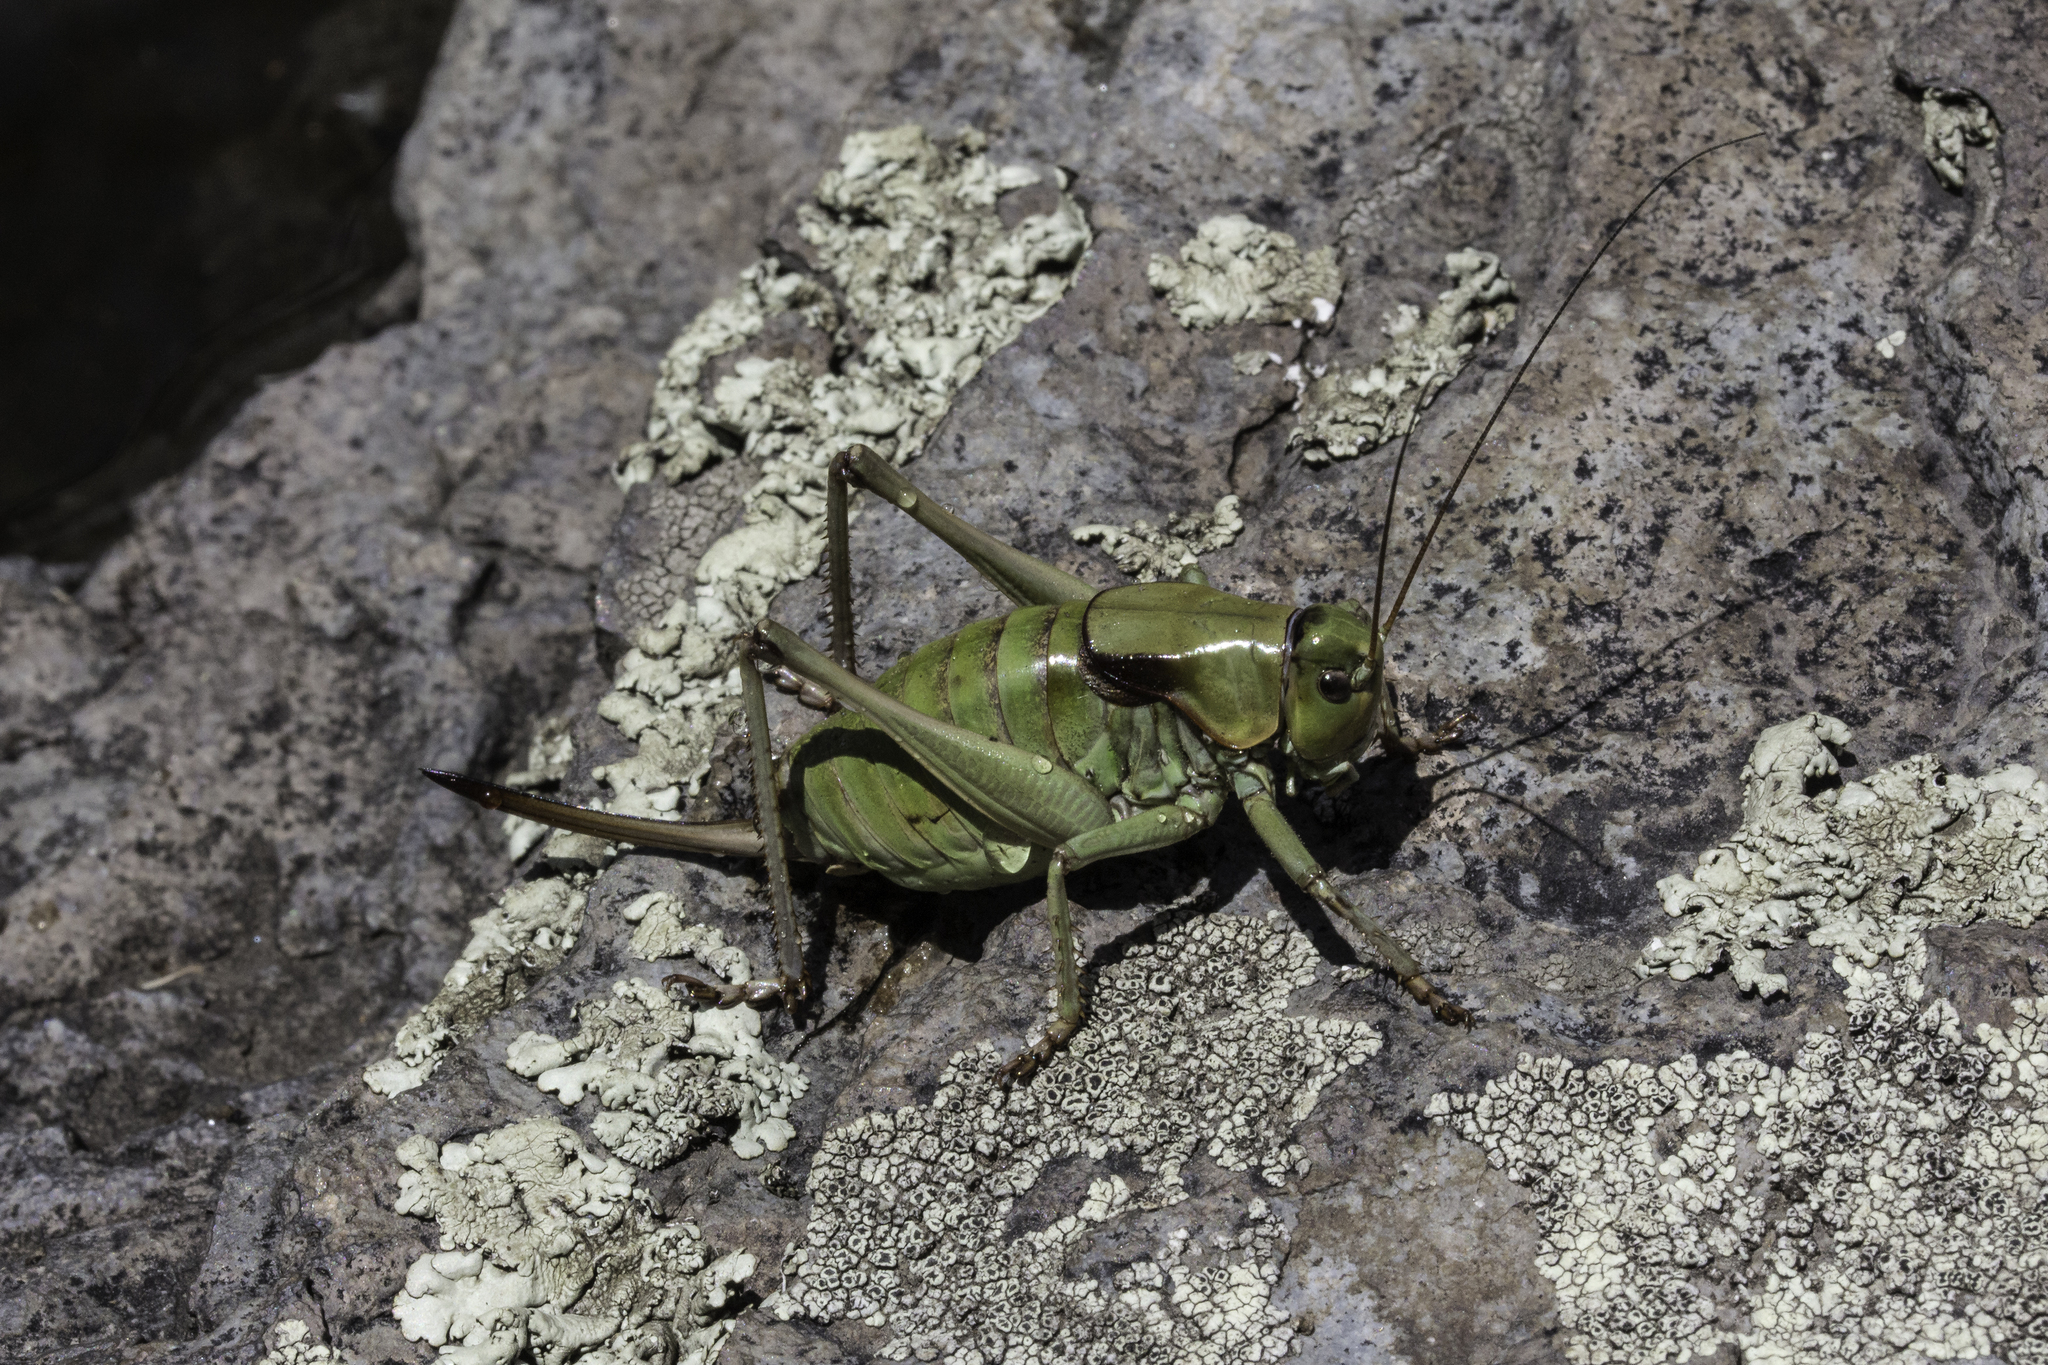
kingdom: Animalia
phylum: Arthropoda
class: Insecta
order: Orthoptera
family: Tettigoniidae
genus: Anabrus
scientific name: Anabrus simplex
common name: Mormon cricket
